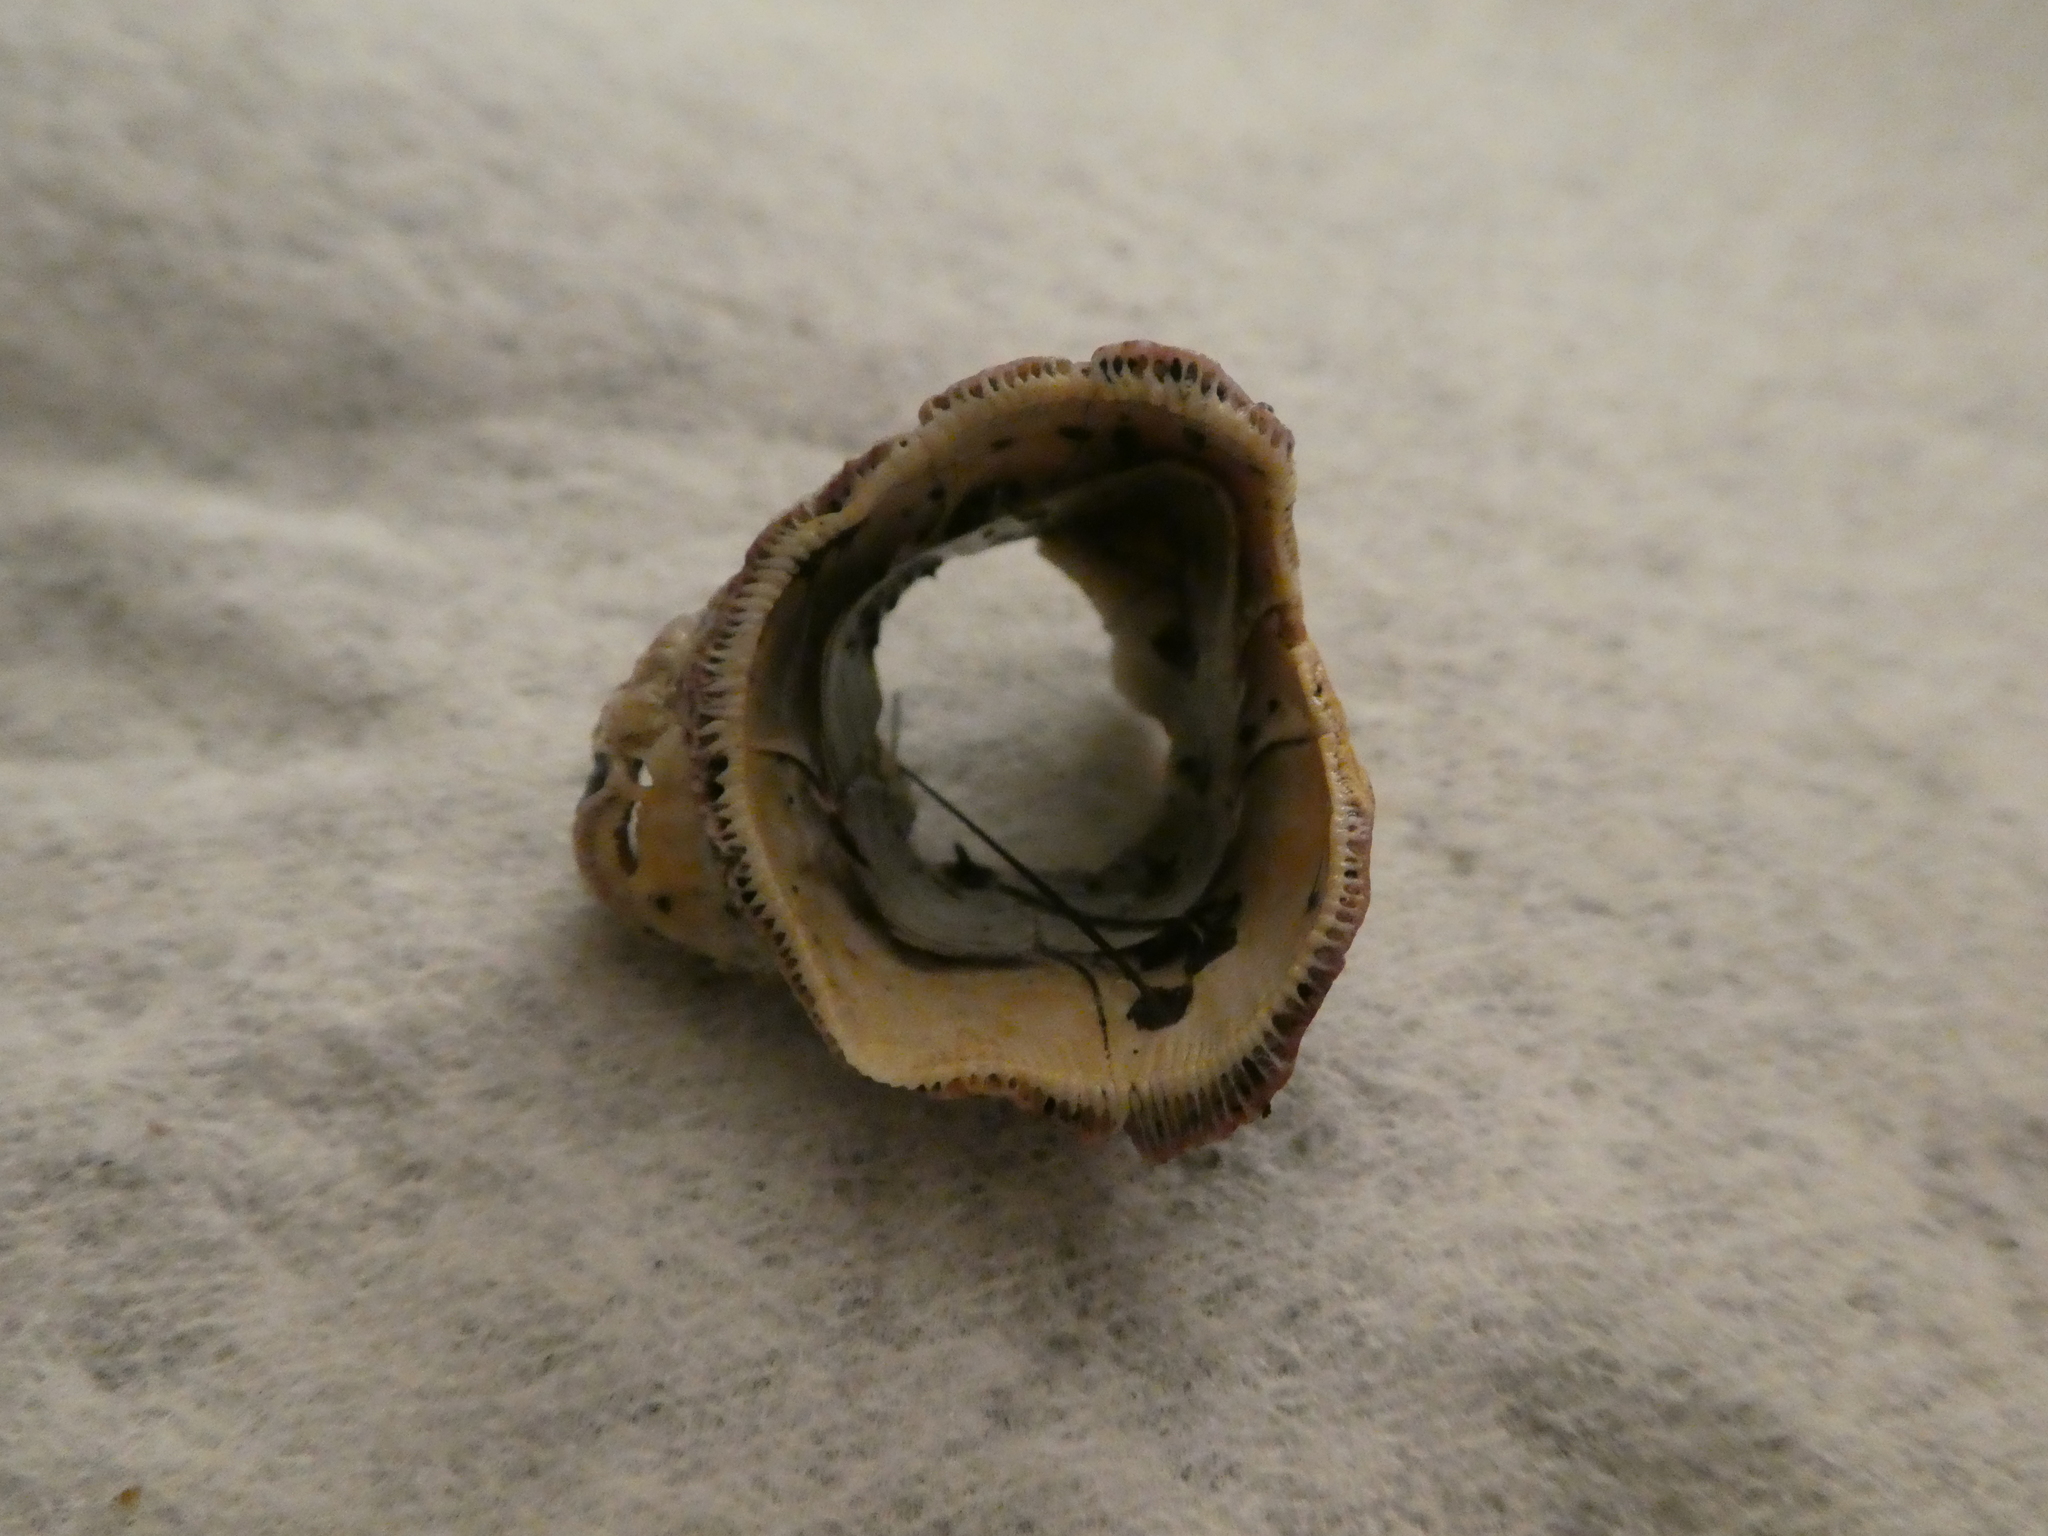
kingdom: Animalia
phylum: Arthropoda
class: Maxillopoda
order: Sessilia
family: Balanidae
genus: Megabalanus
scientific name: Megabalanus californicus
